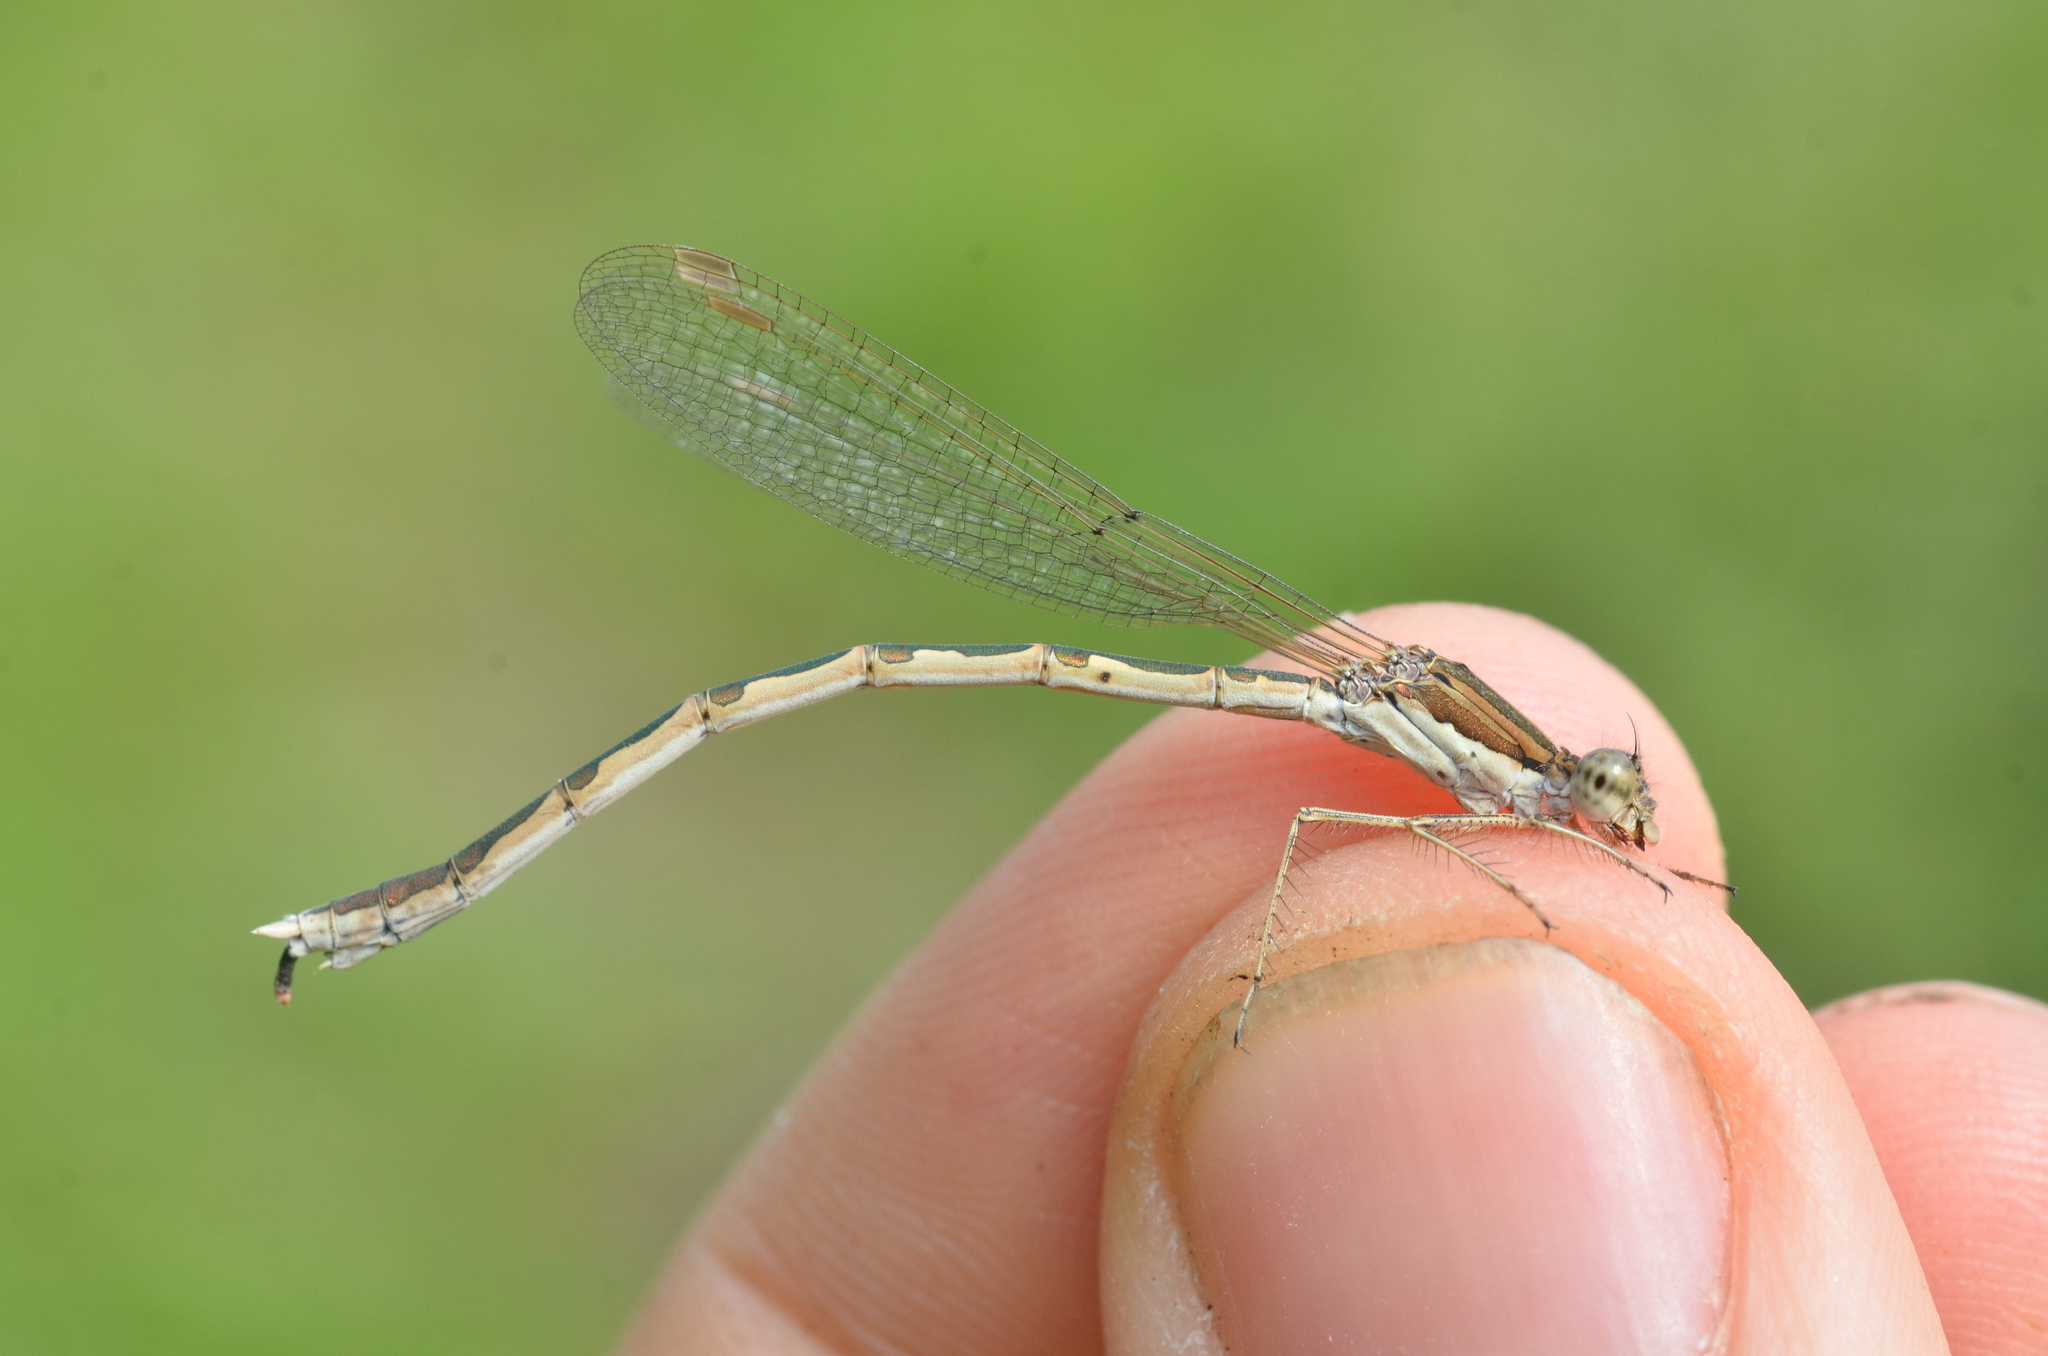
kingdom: Animalia
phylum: Arthropoda
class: Insecta
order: Odonata
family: Lestidae
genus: Sympecma
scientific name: Sympecma fusca
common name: Common winter damsel
